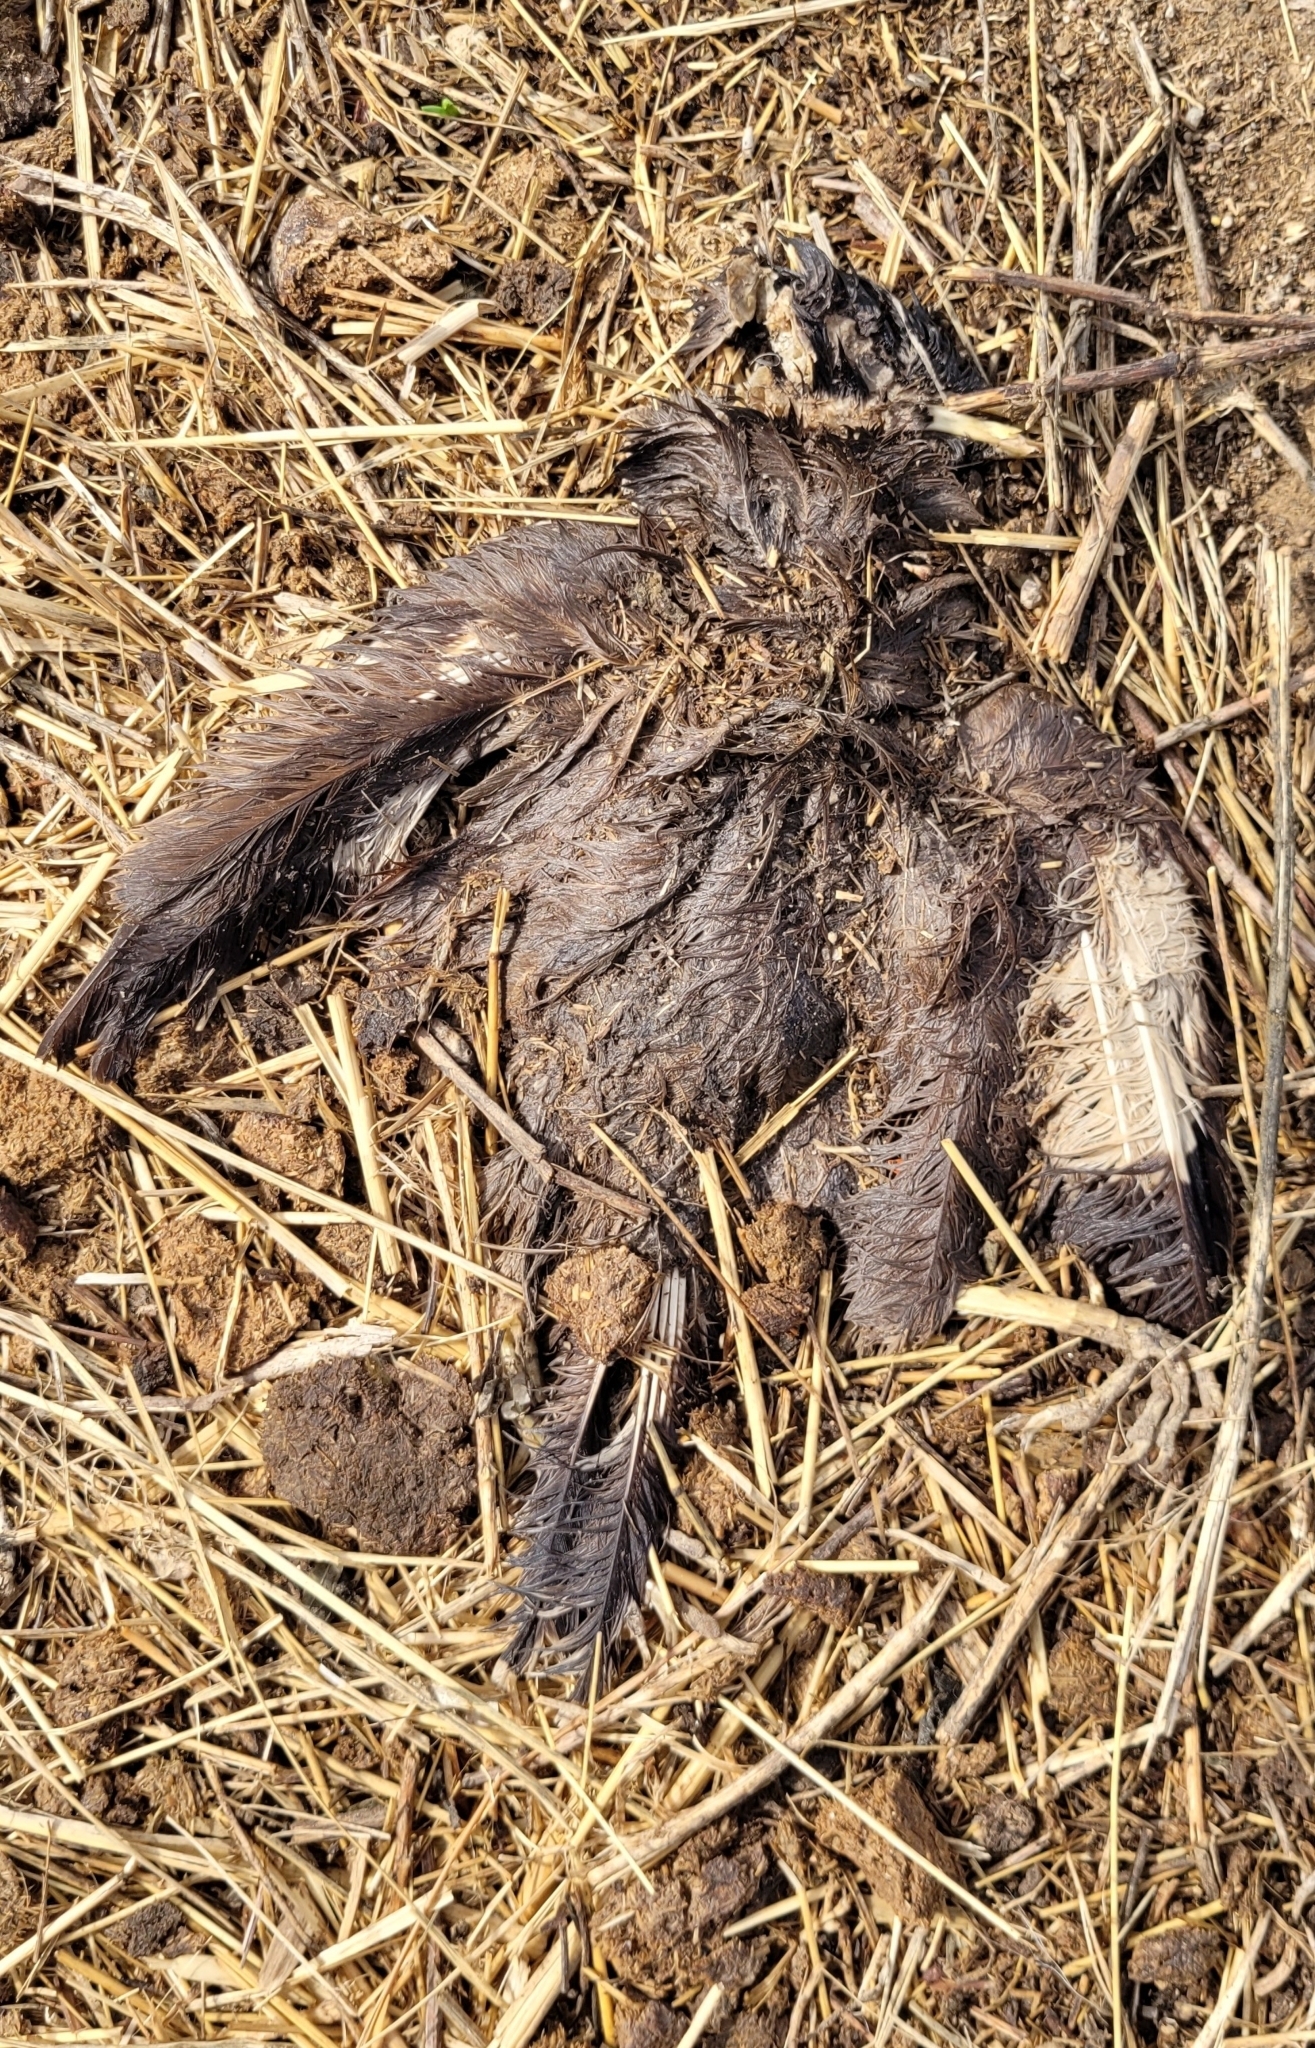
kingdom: Animalia
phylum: Chordata
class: Aves
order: Passeriformes
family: Sturnidae
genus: Acridotheres
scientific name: Acridotheres tristis
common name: Common myna
